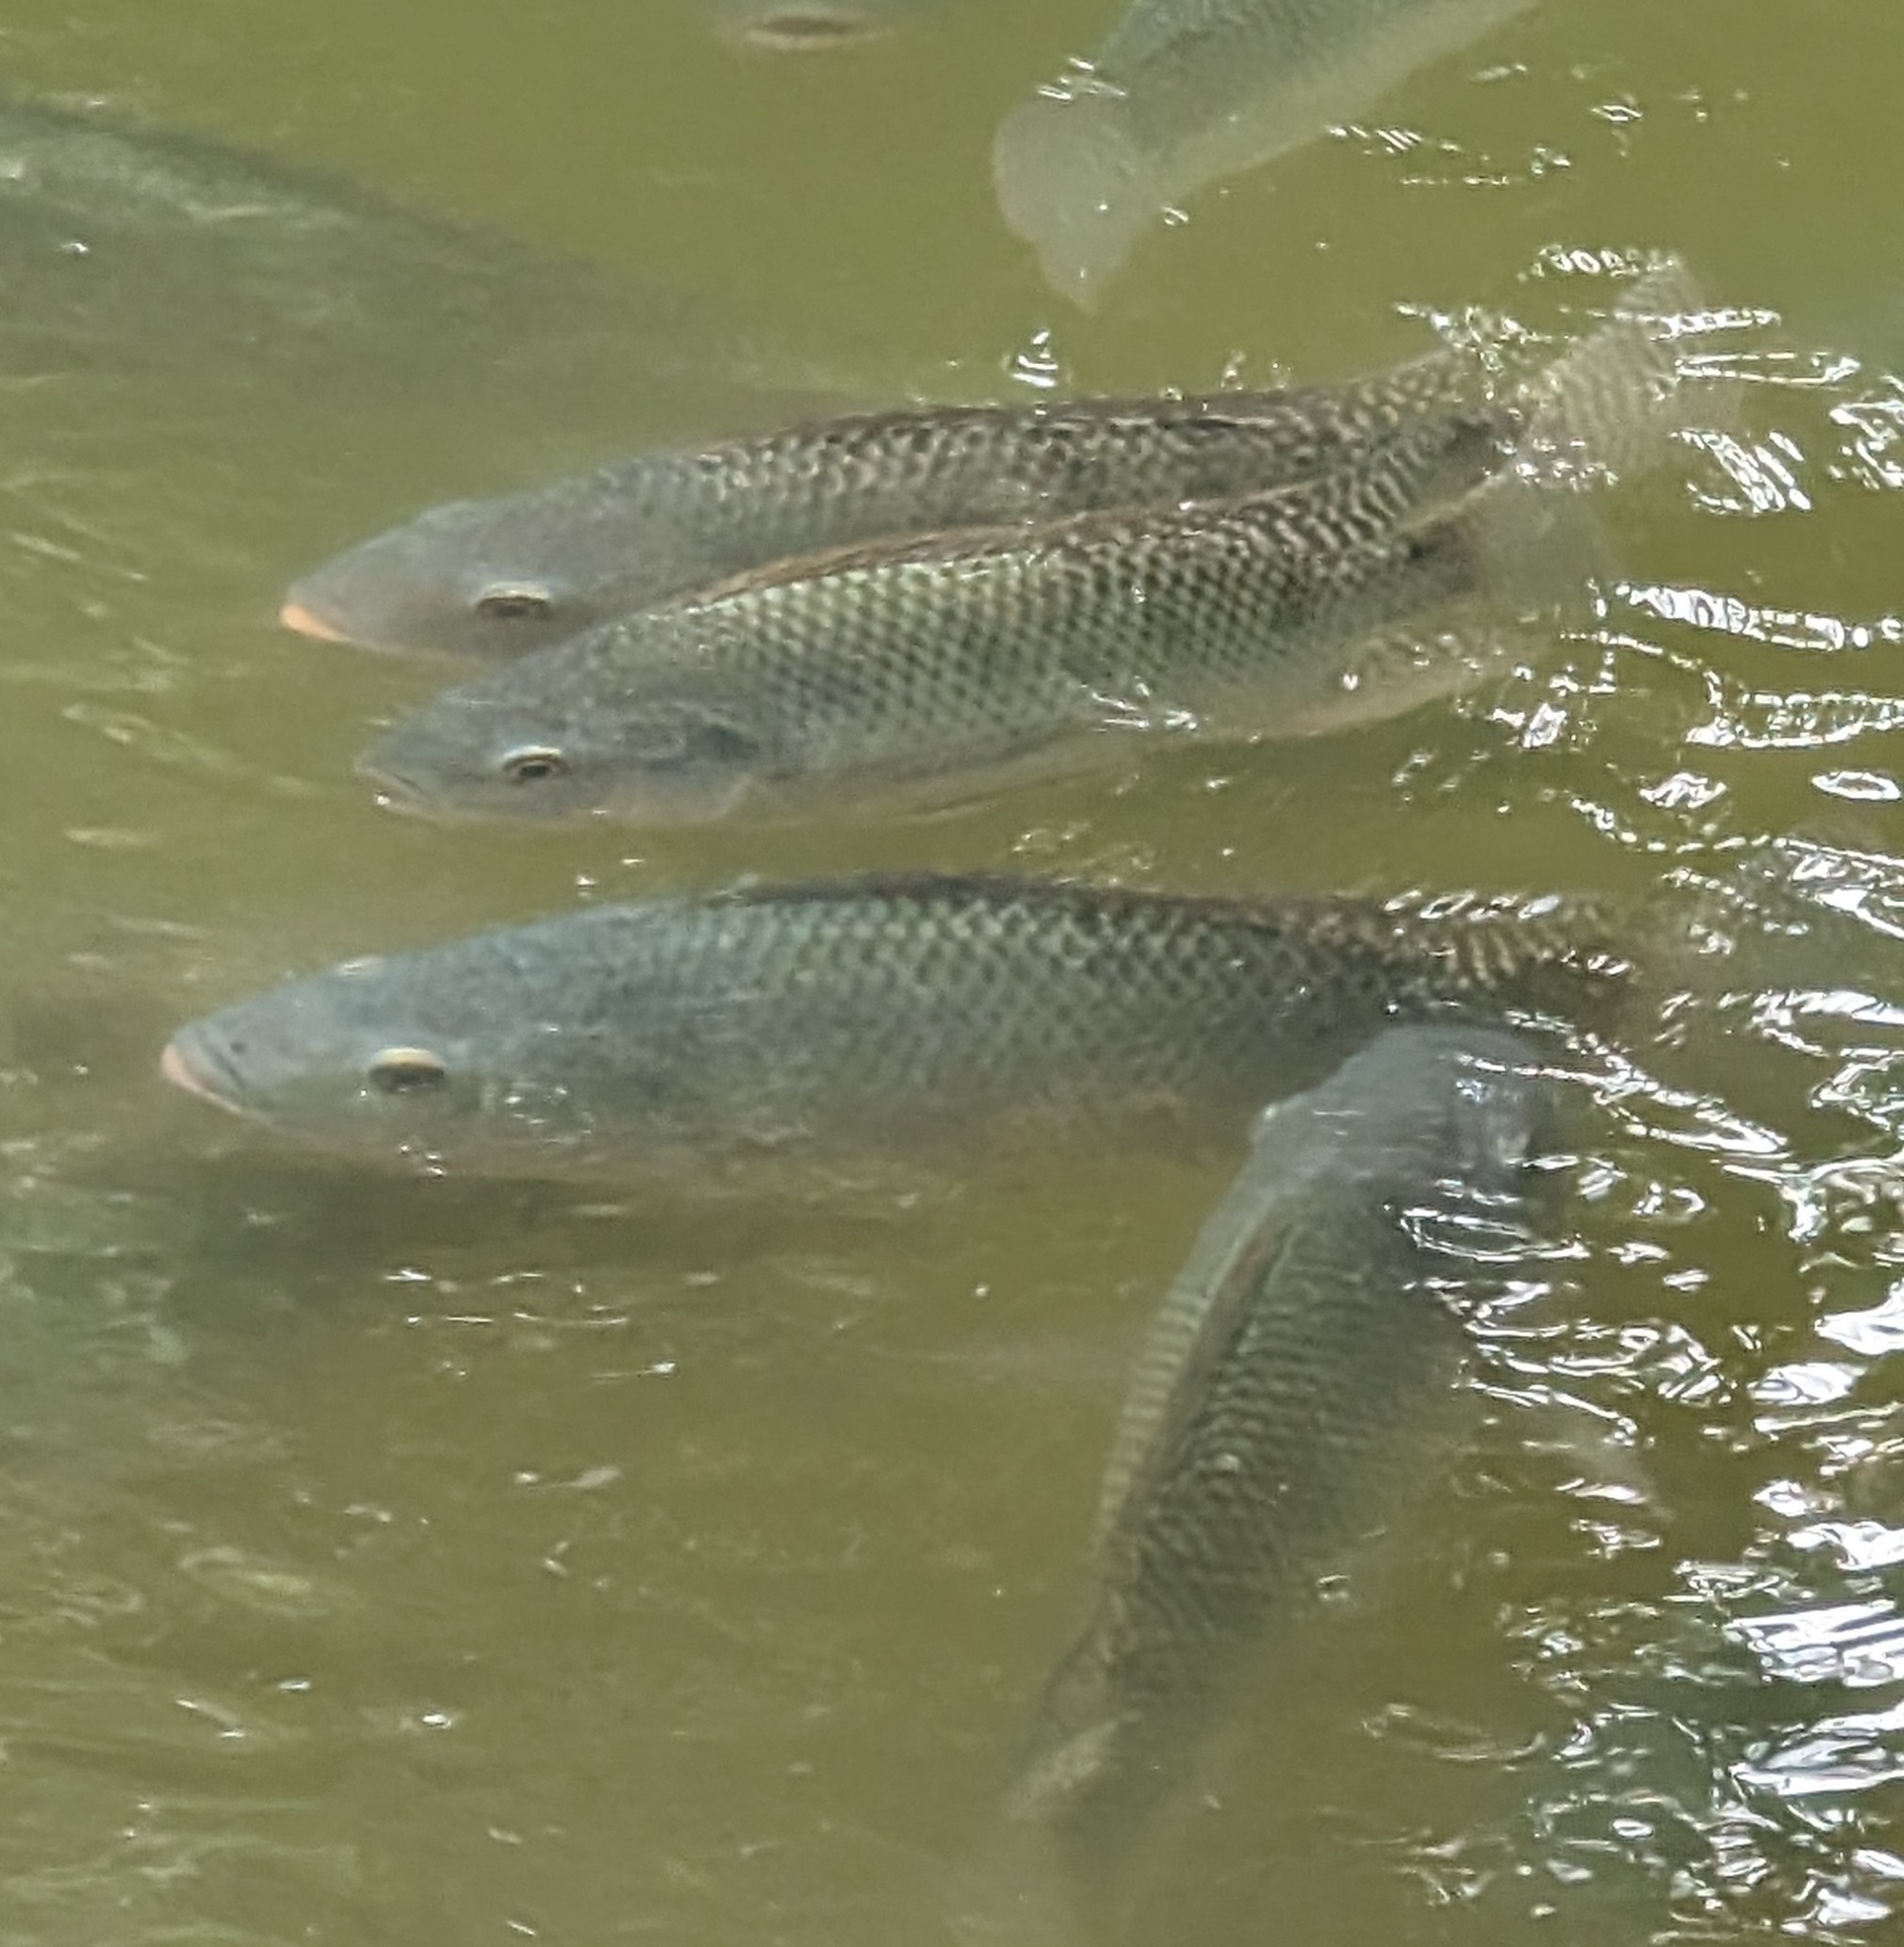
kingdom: Animalia
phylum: Chordata
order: Perciformes
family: Cichlidae
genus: Oreochromis
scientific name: Oreochromis niloticus
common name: Nile tilapia
